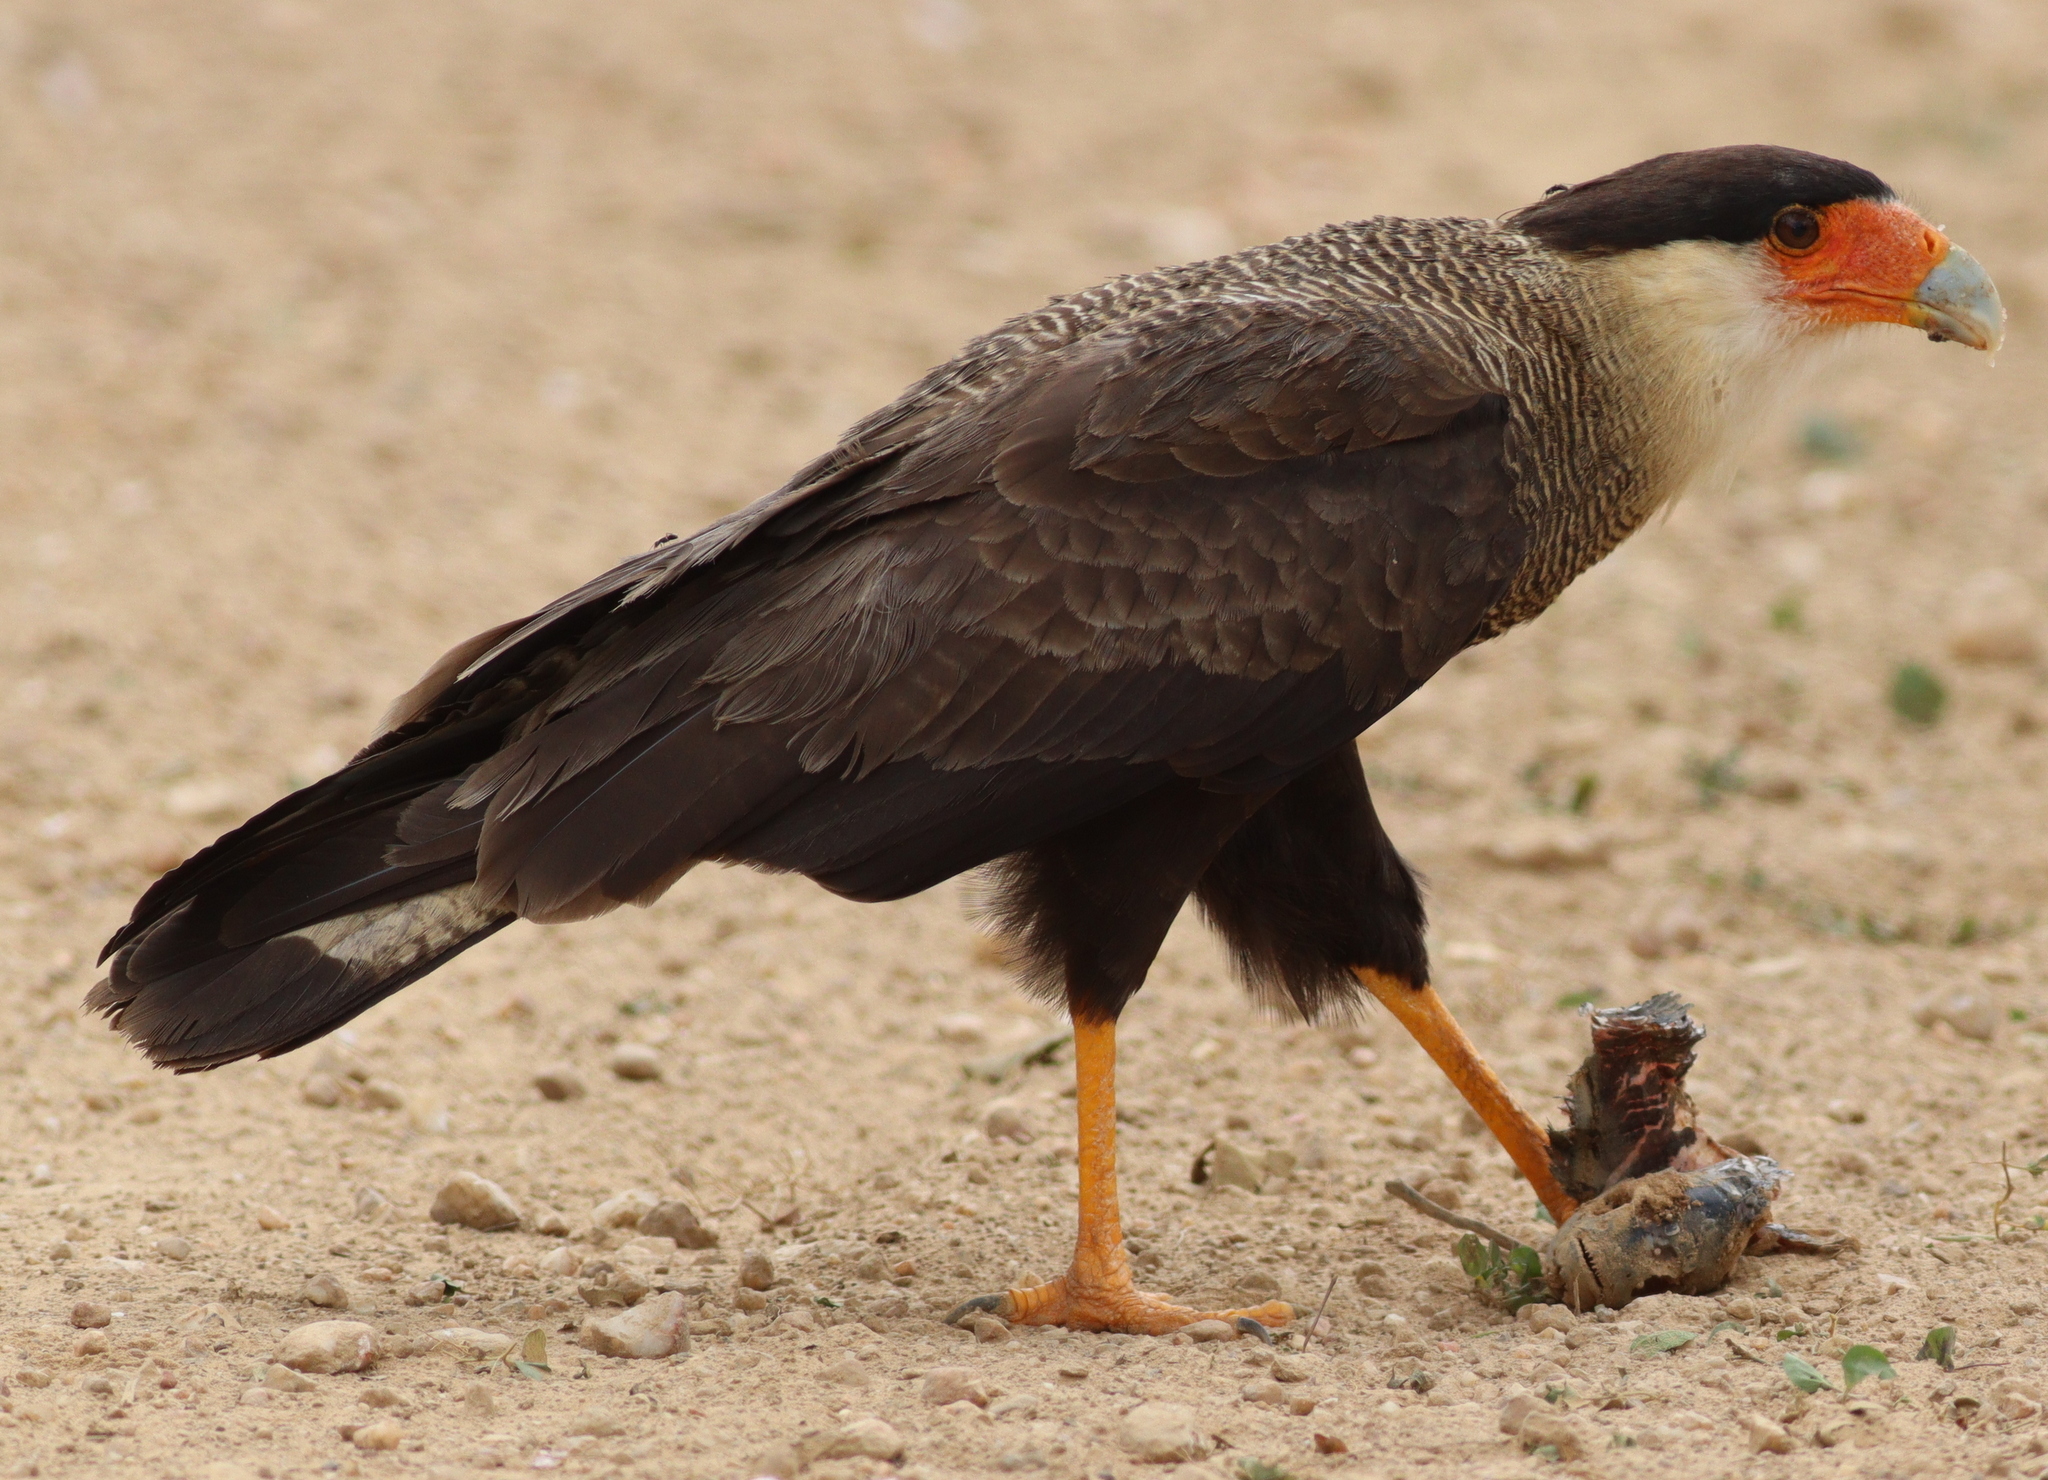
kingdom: Animalia
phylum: Chordata
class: Aves
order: Falconiformes
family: Falconidae
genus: Caracara
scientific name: Caracara plancus
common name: Southern caracara
